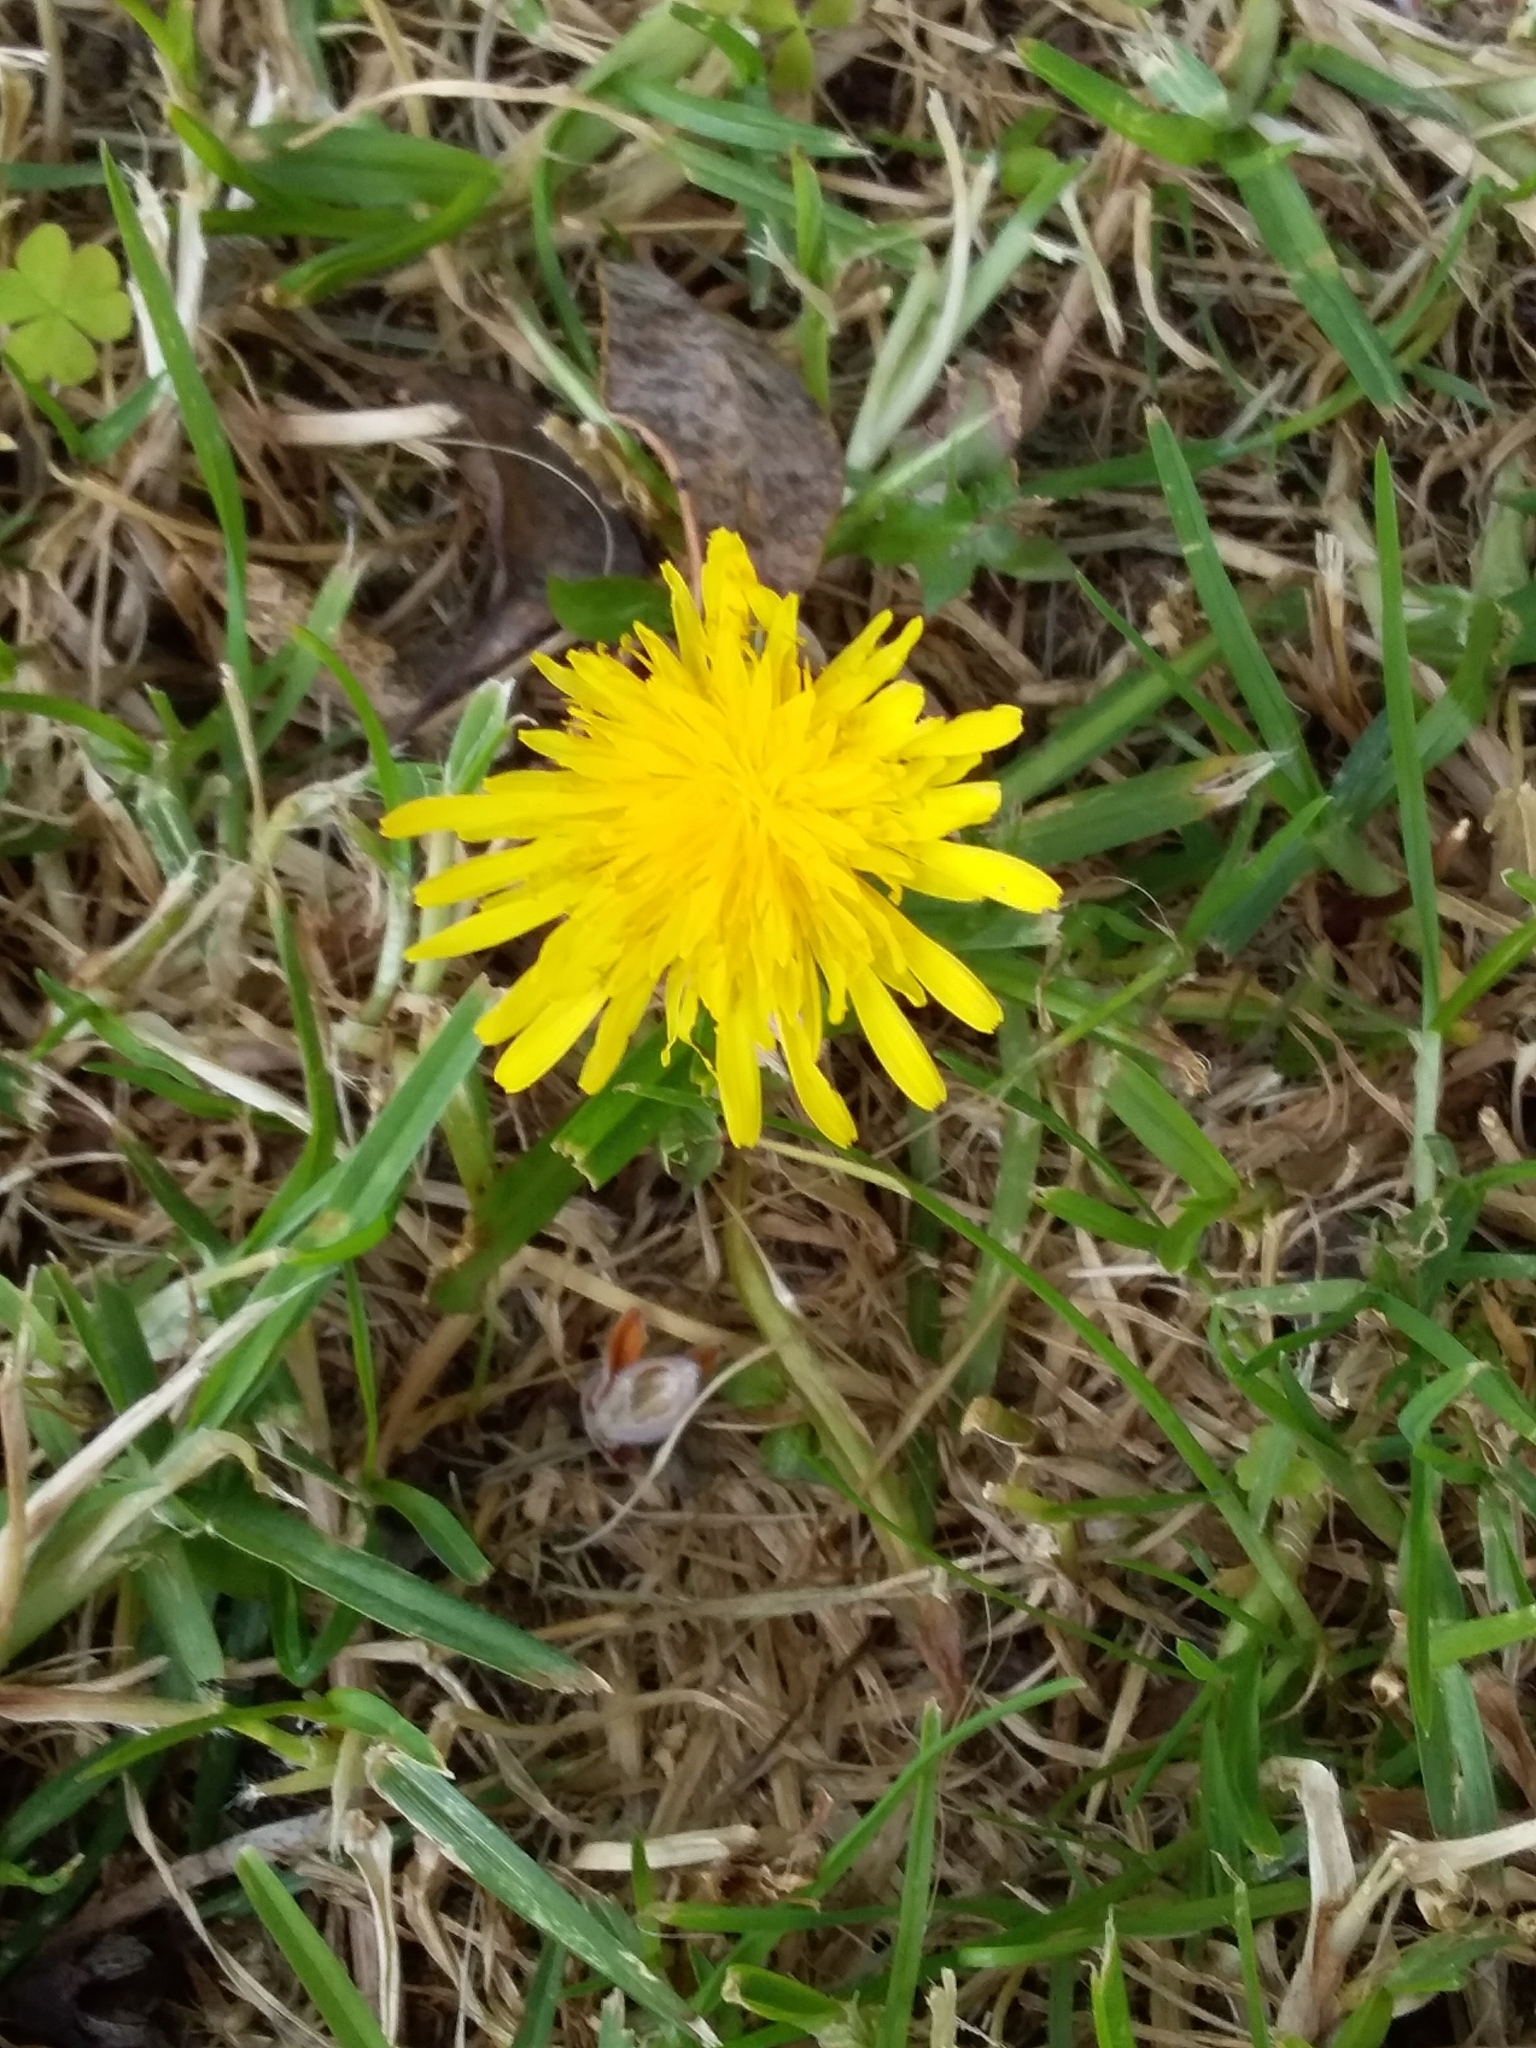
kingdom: Plantae
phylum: Tracheophyta
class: Magnoliopsida
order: Asterales
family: Asteraceae
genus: Taraxacum
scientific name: Taraxacum officinale
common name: Common dandelion
